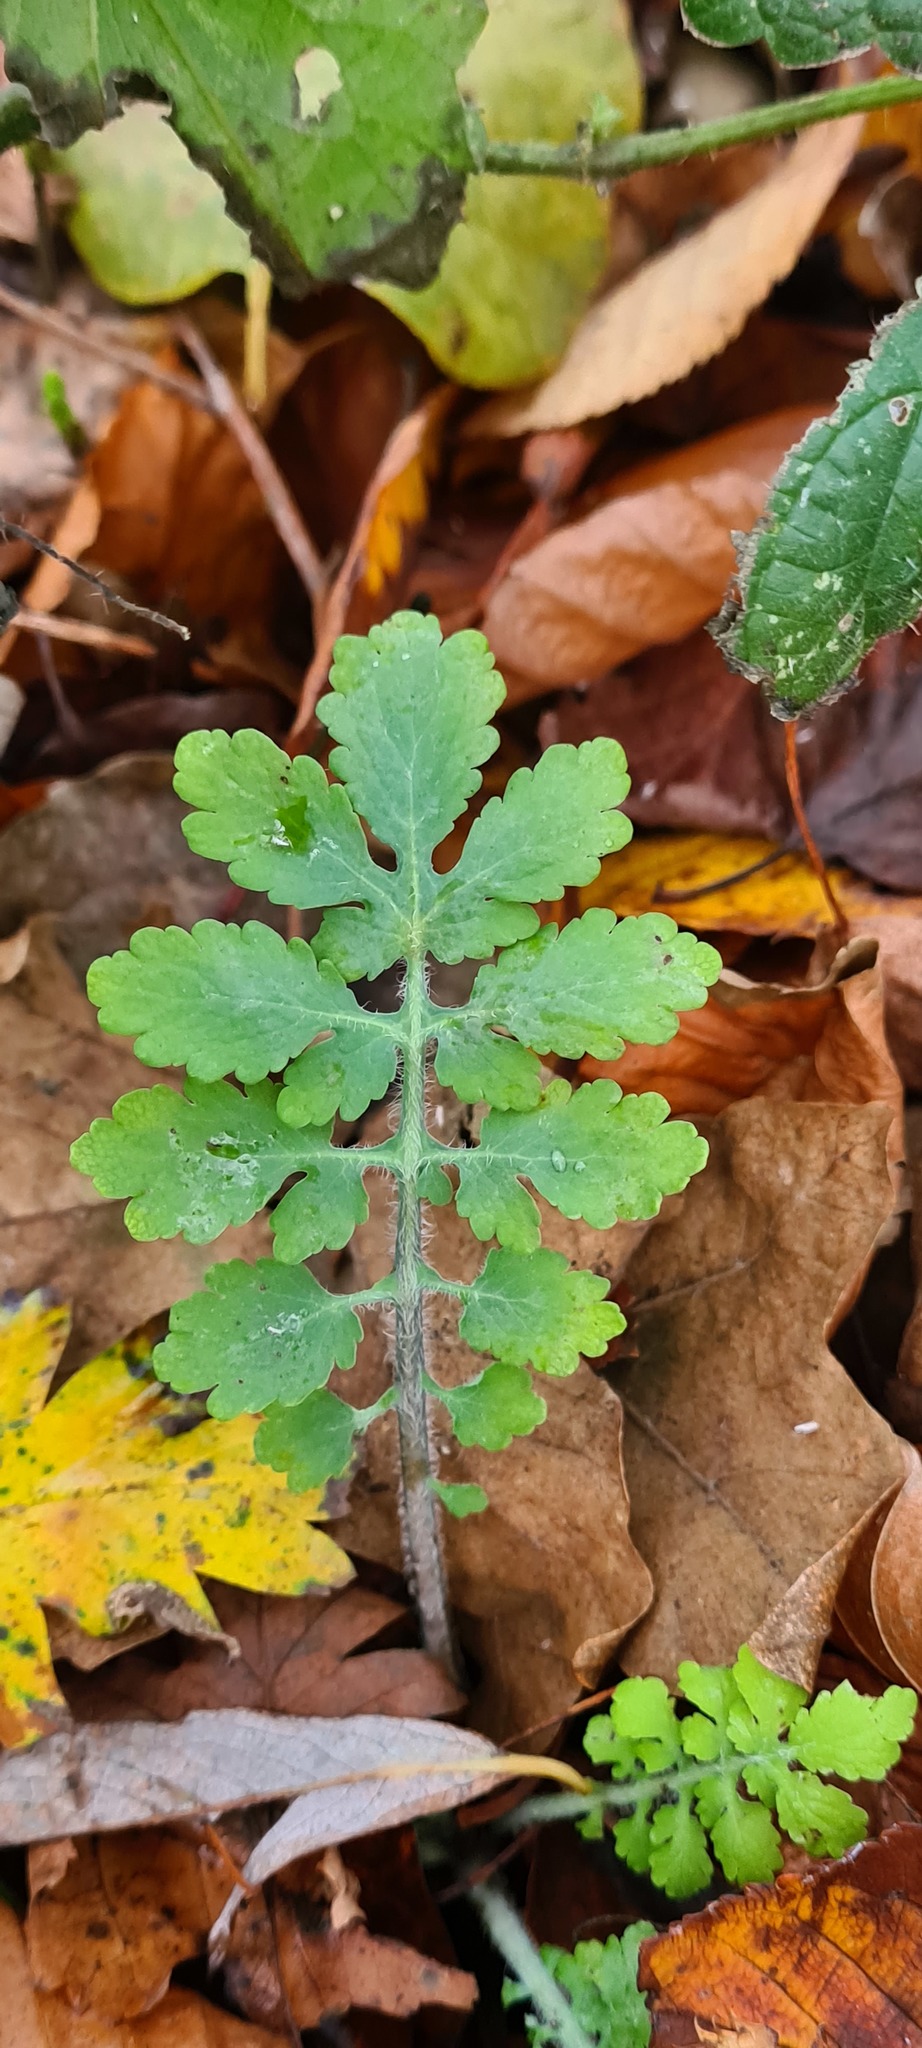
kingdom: Plantae
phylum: Tracheophyta
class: Magnoliopsida
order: Ranunculales
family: Papaveraceae
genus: Chelidonium
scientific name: Chelidonium majus
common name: Greater celandine
